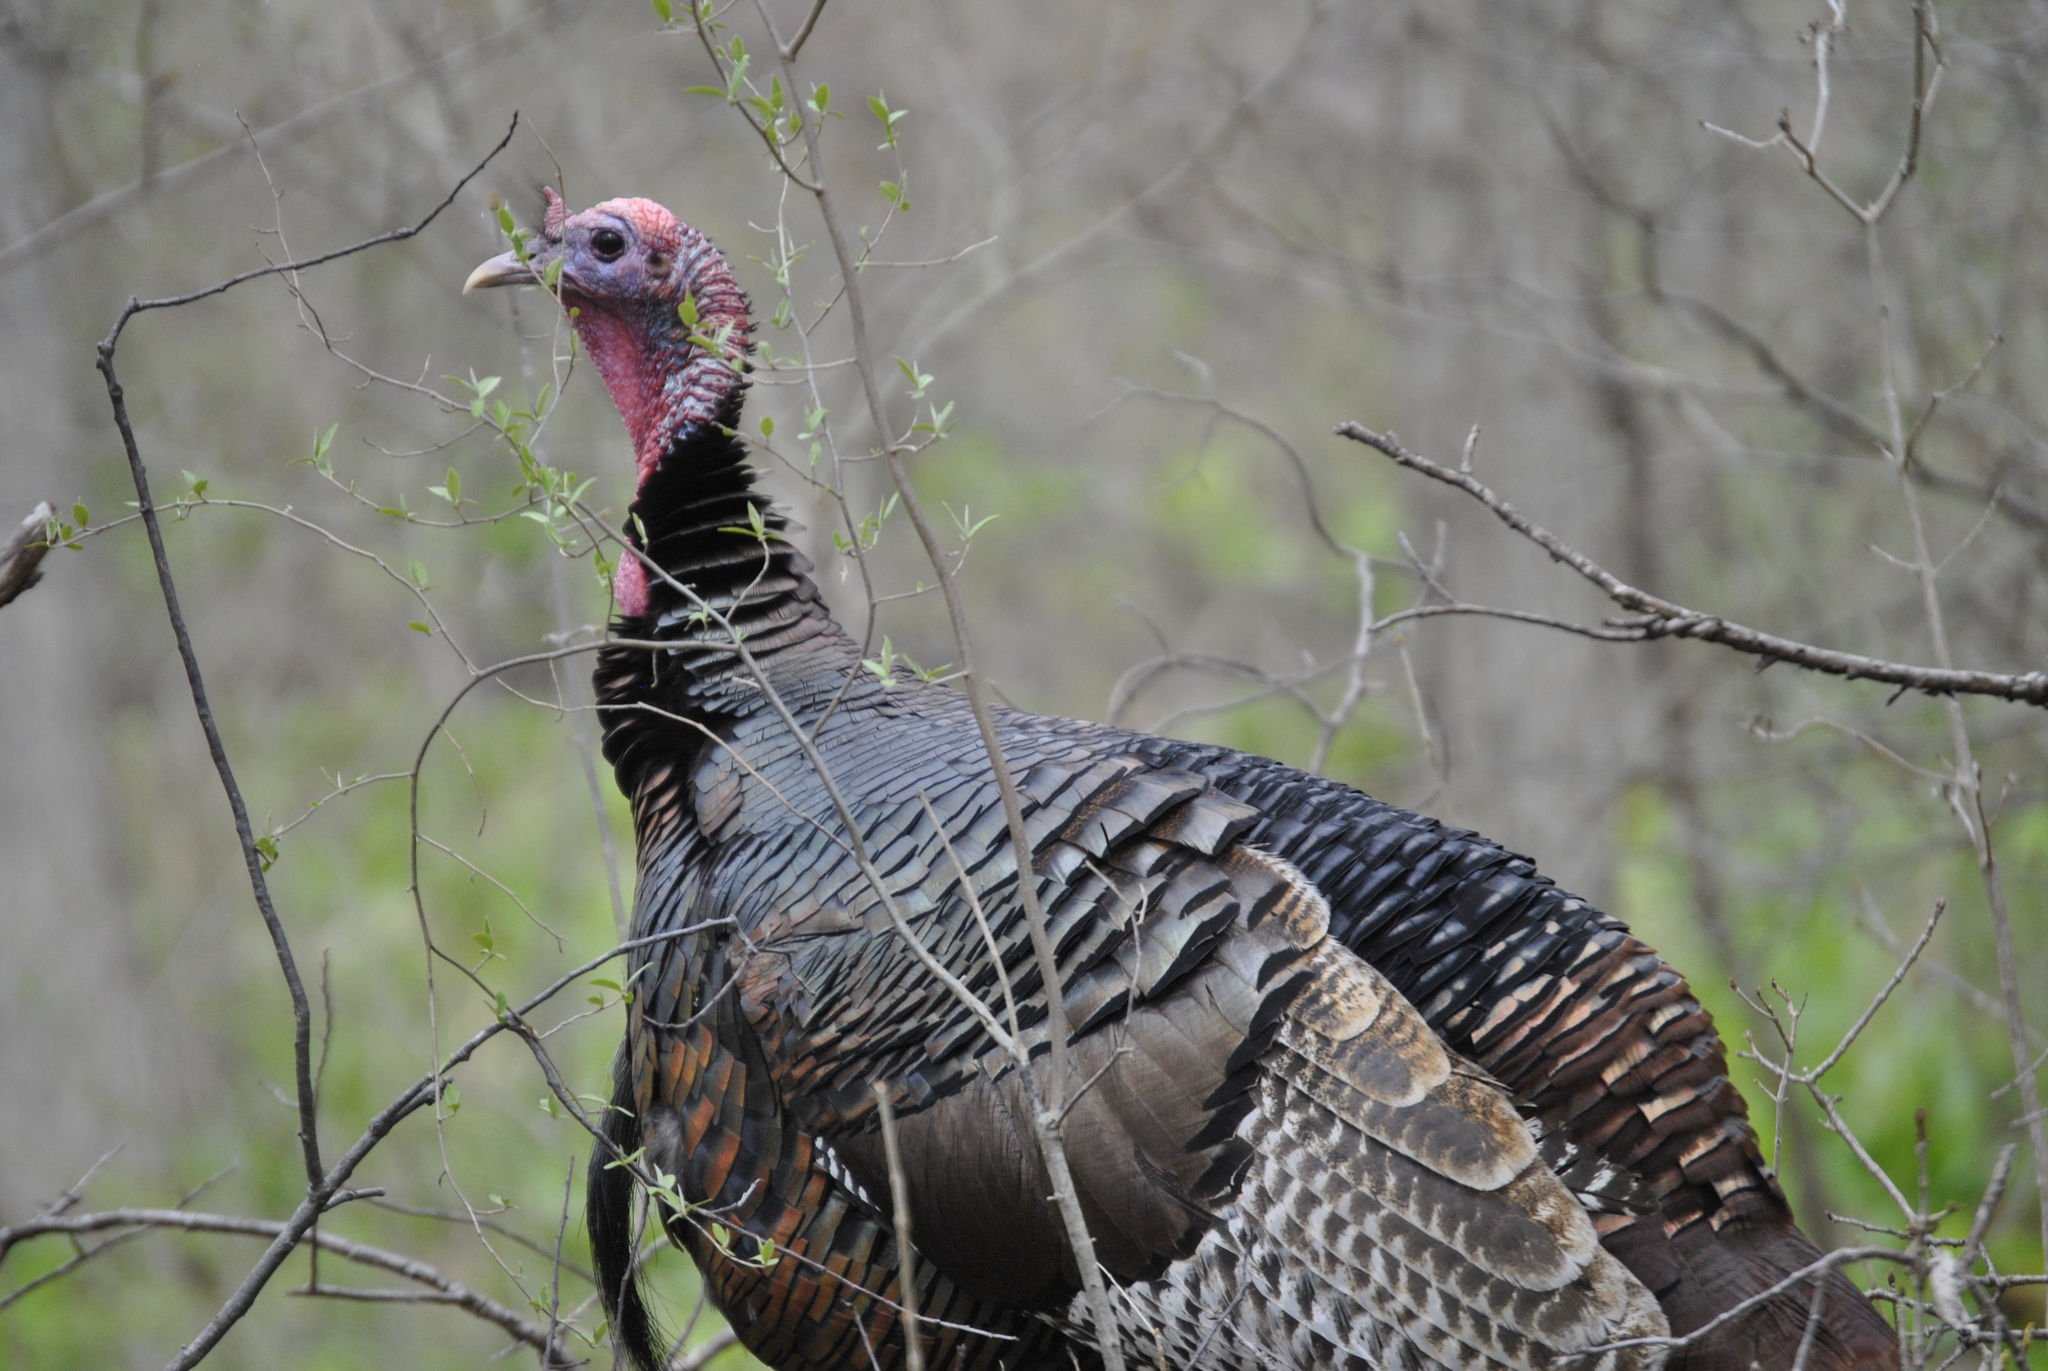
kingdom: Animalia
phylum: Chordata
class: Aves
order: Galliformes
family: Phasianidae
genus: Meleagris
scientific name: Meleagris gallopavo
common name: Wild turkey
